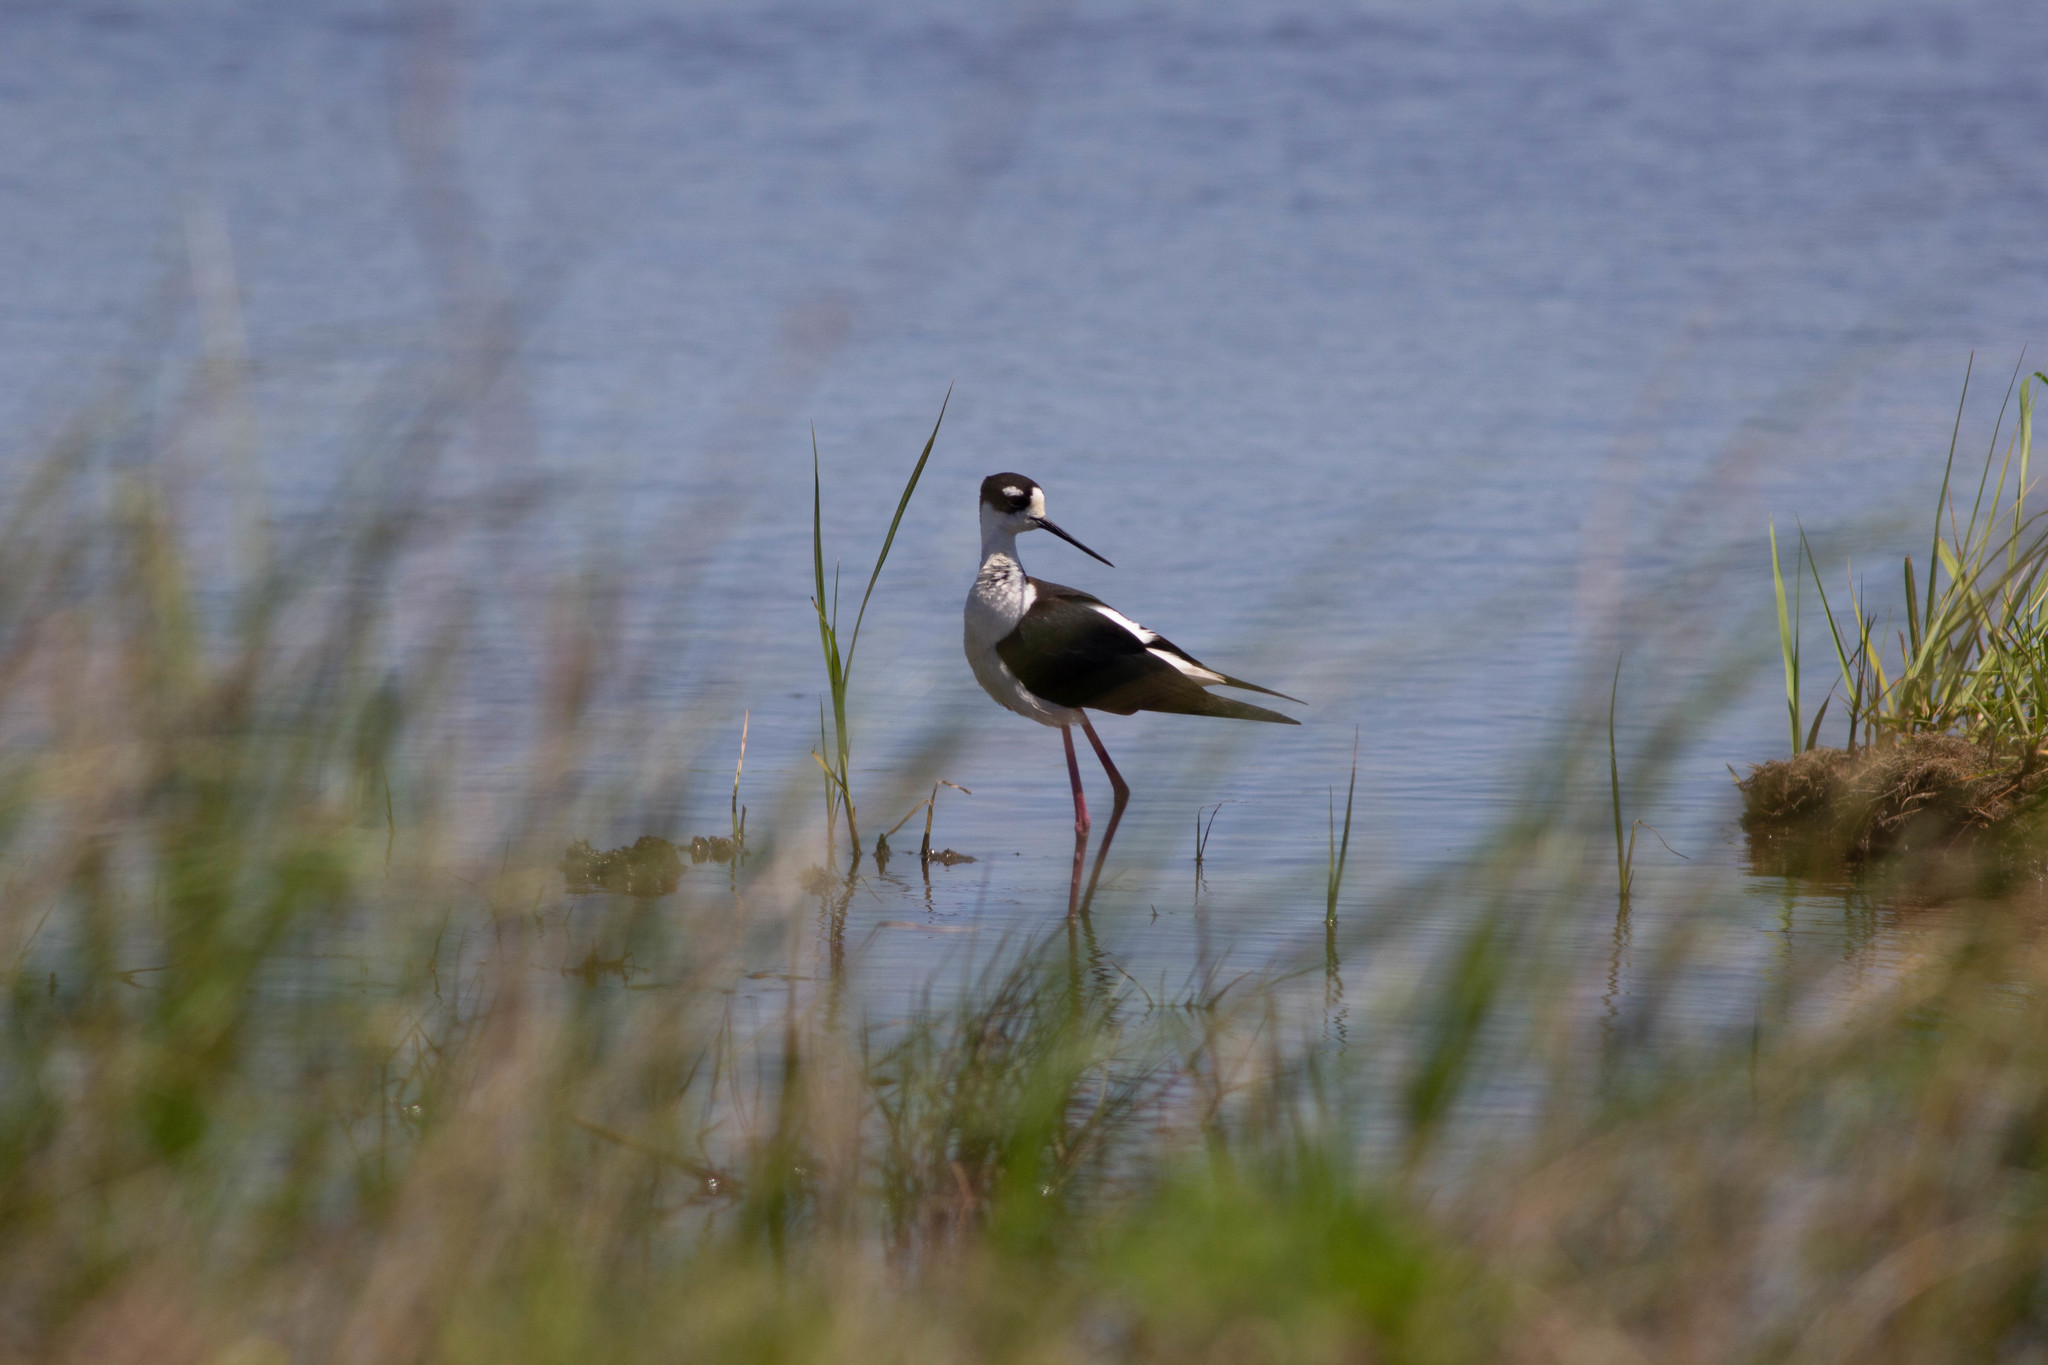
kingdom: Animalia
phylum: Chordata
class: Aves
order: Charadriiformes
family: Recurvirostridae
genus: Himantopus
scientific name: Himantopus mexicanus
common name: Black-necked stilt
